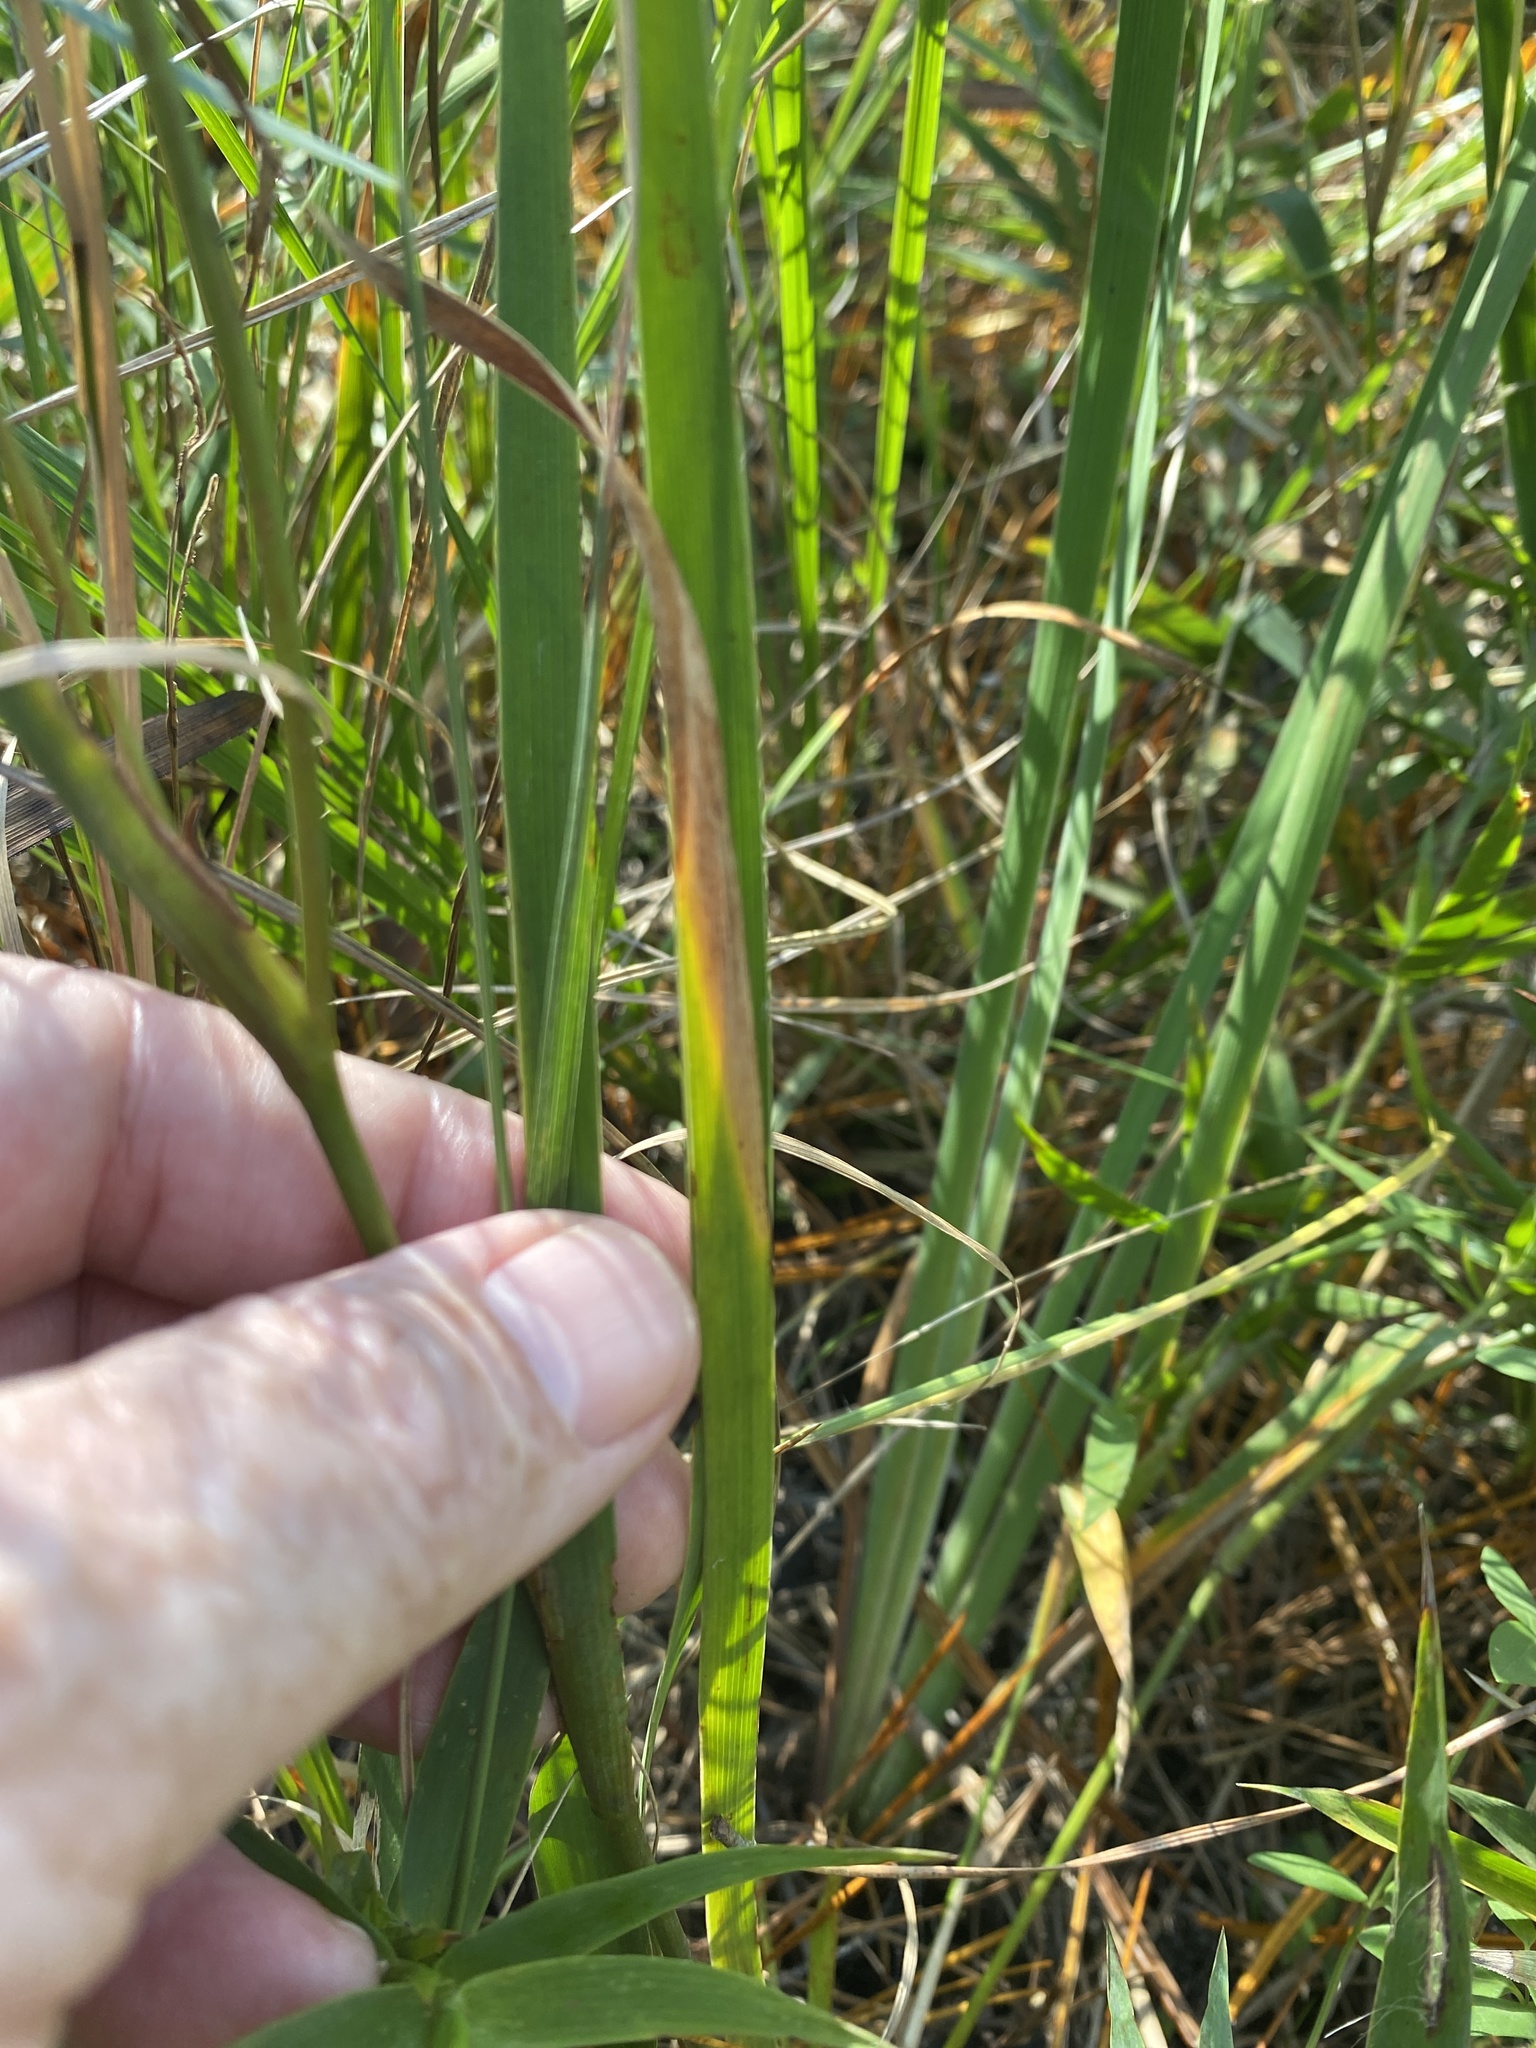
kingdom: Plantae
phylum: Tracheophyta
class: Liliopsida
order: Asparagales
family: Iridaceae
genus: Iris
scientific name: Iris tridentata
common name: Savannah iris
